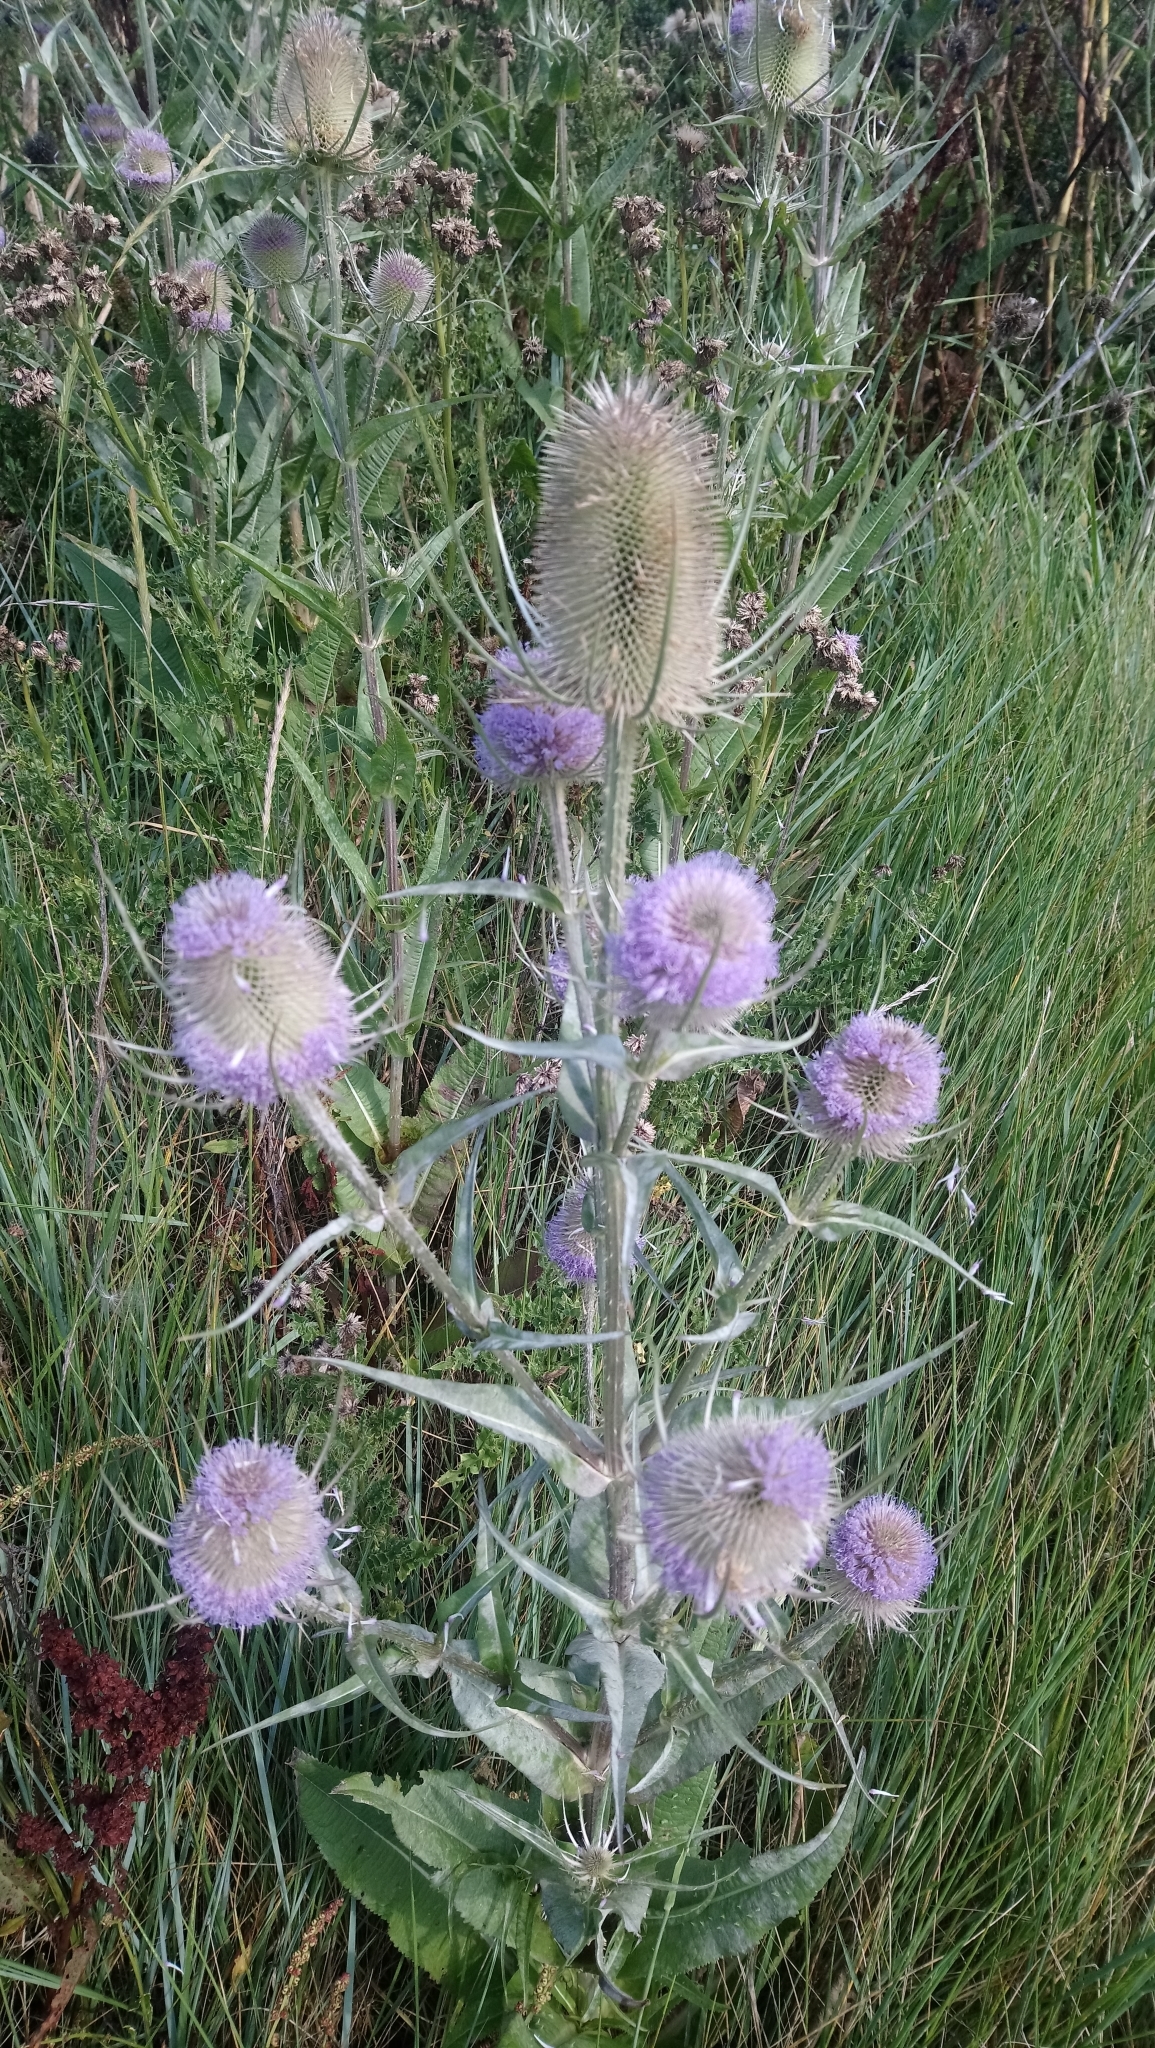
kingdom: Plantae
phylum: Tracheophyta
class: Magnoliopsida
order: Dipsacales
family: Caprifoliaceae
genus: Dipsacus
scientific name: Dipsacus fullonum
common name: Teasel
